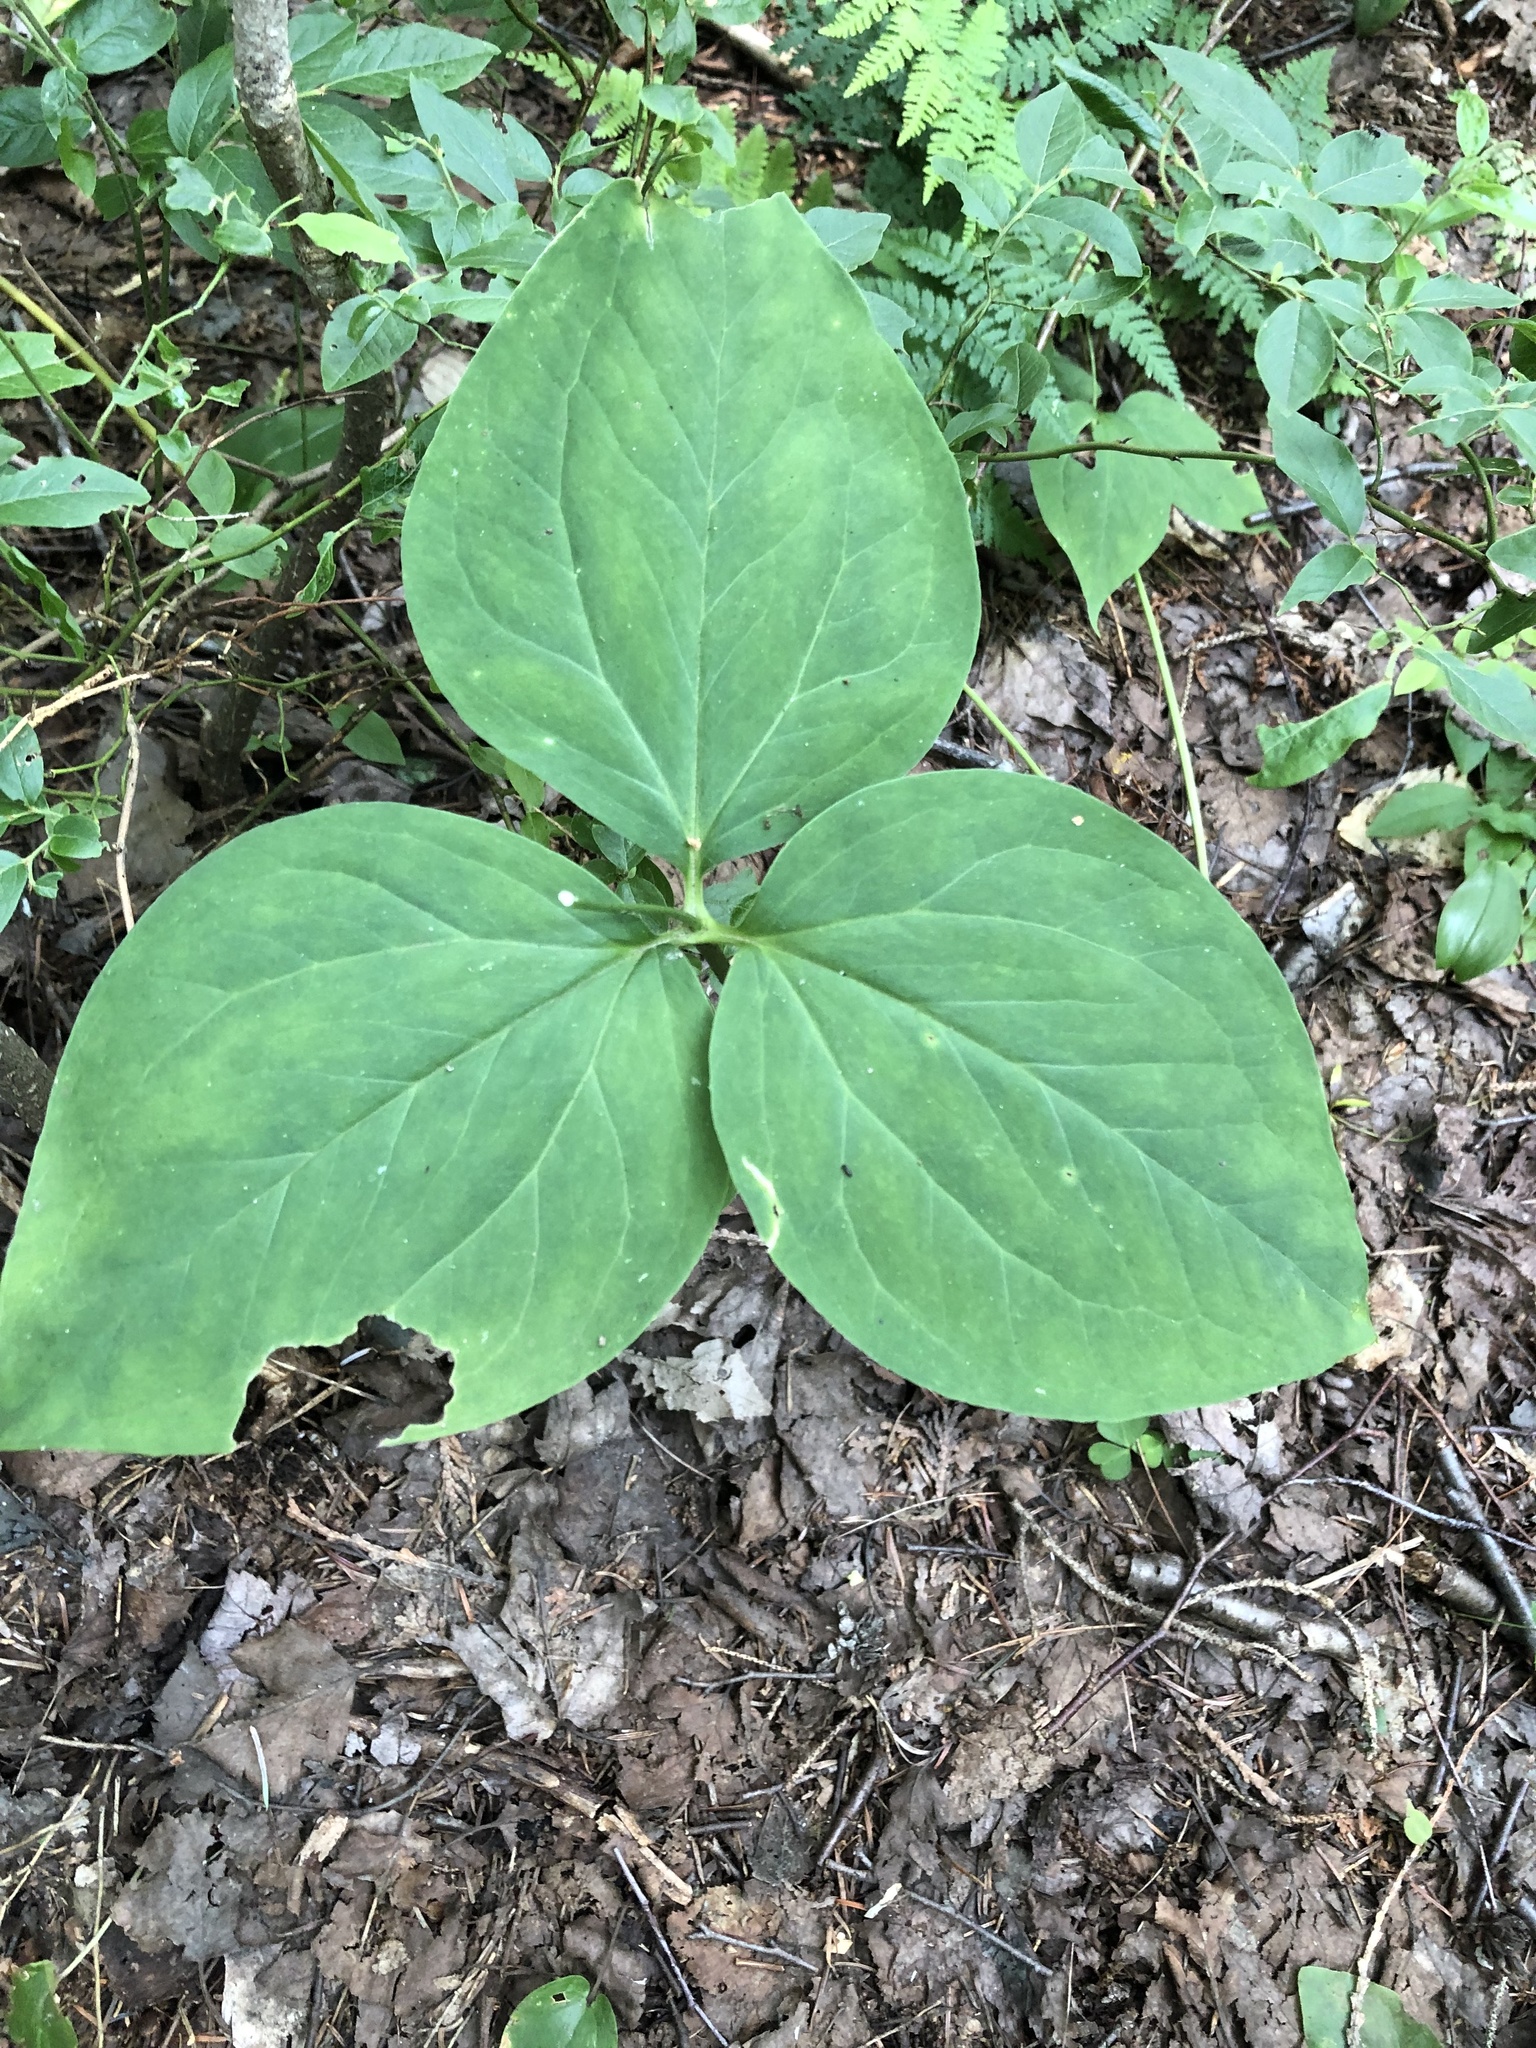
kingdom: Plantae
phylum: Tracheophyta
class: Liliopsida
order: Liliales
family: Melanthiaceae
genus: Trillium
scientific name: Trillium undulatum
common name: Paint trillium
